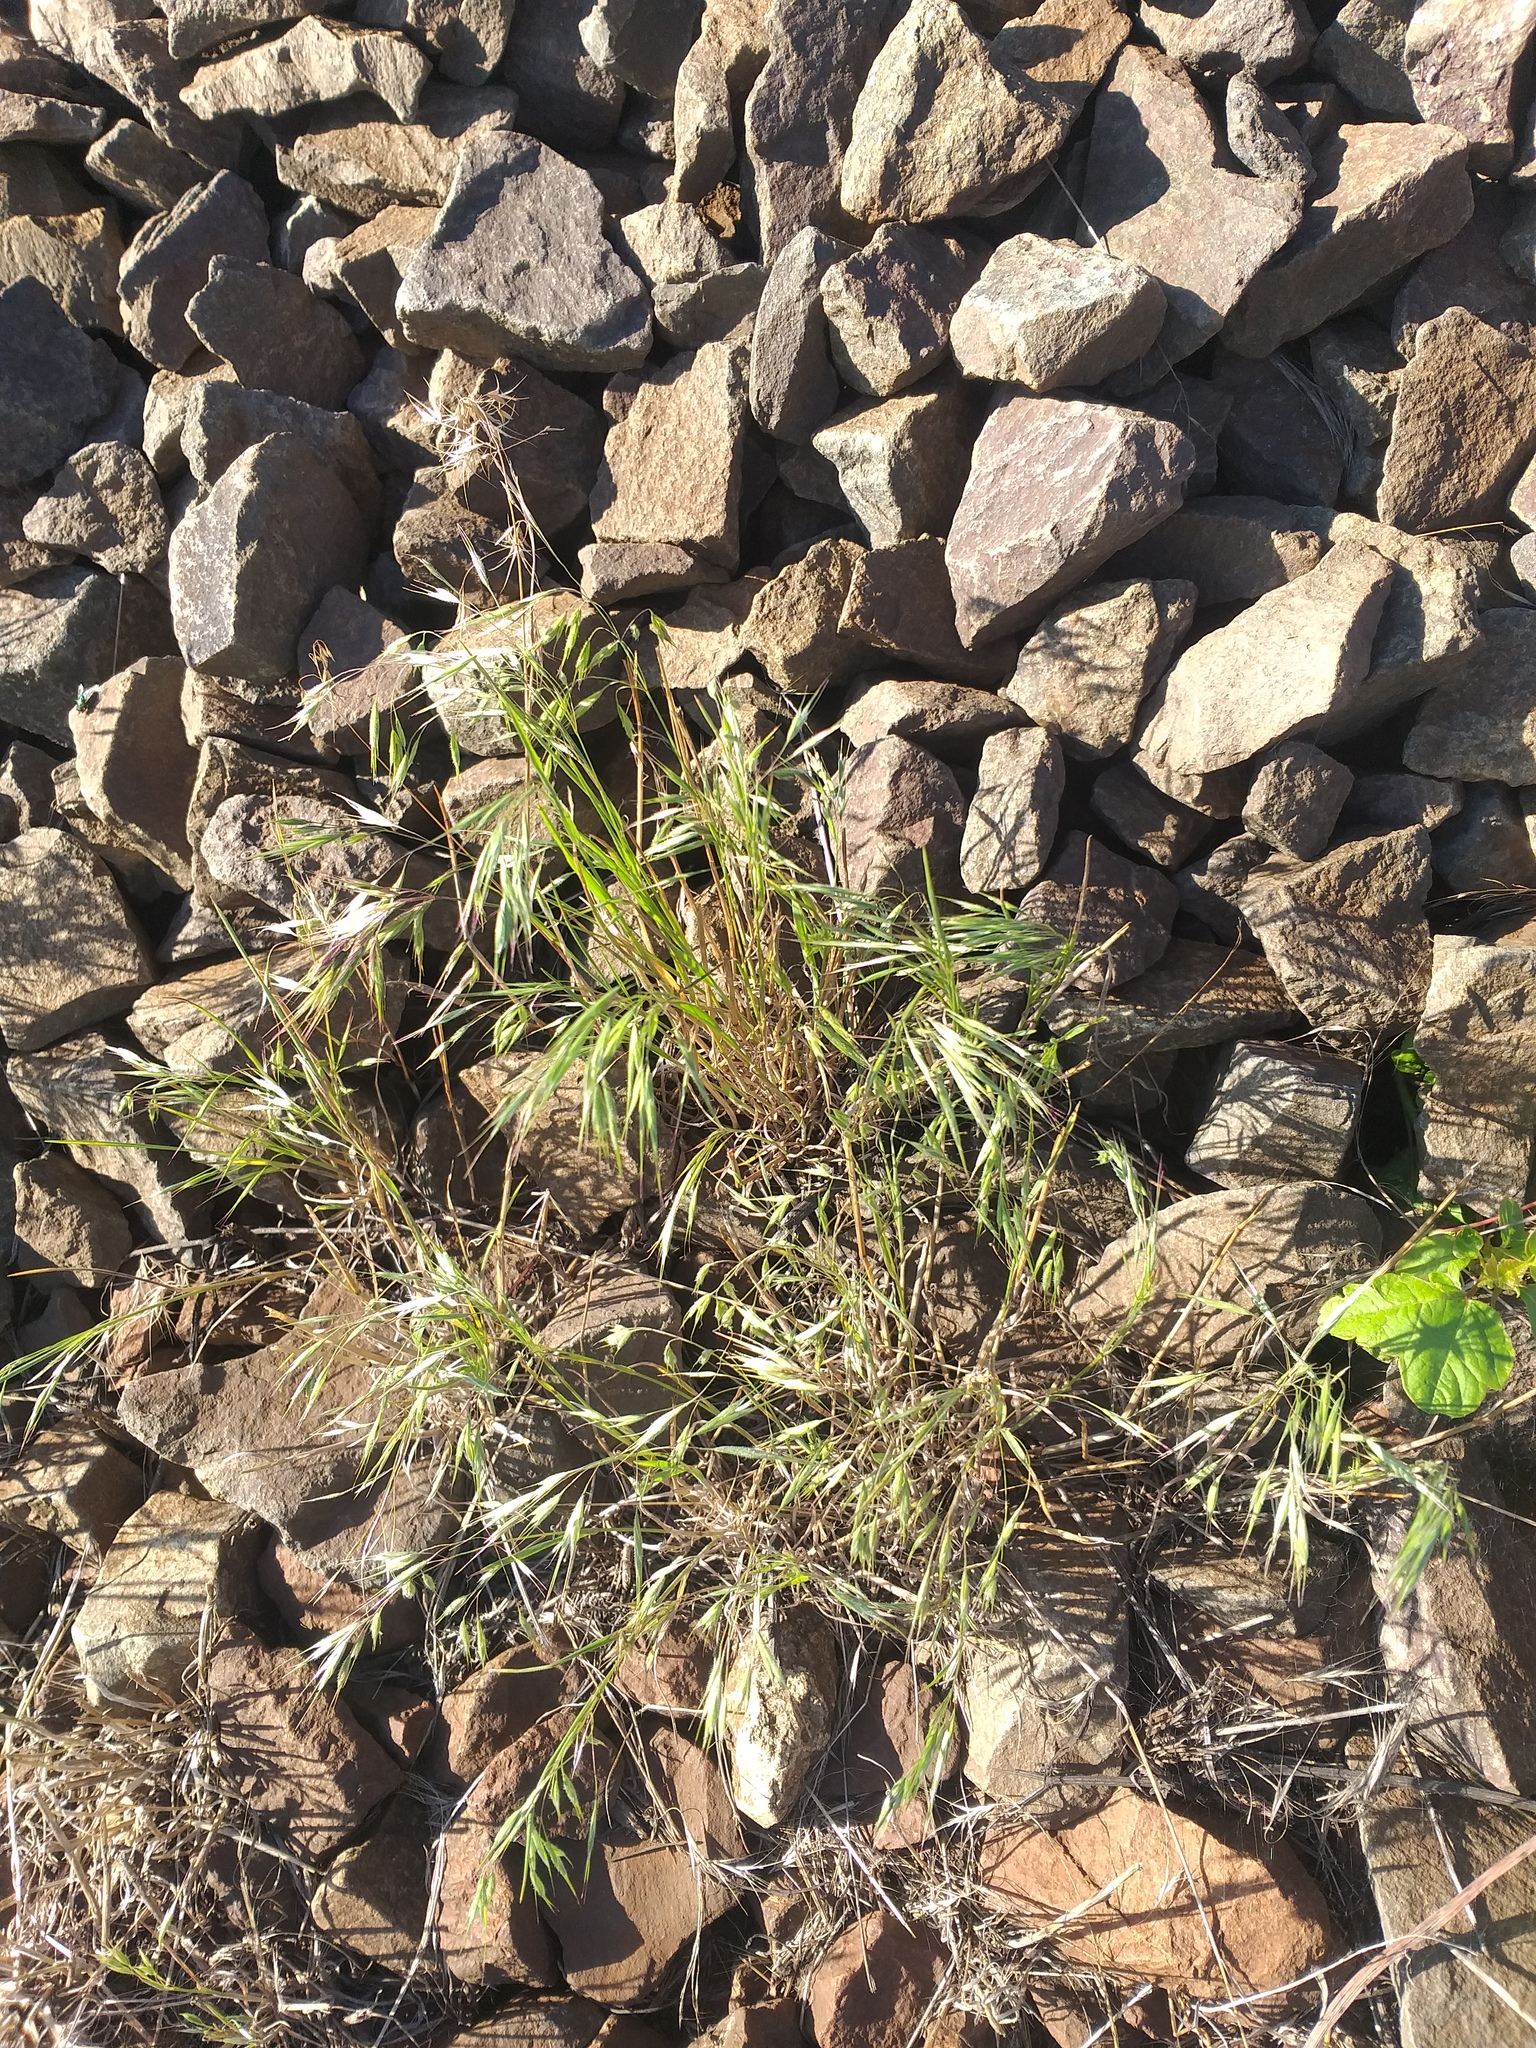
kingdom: Plantae
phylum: Tracheophyta
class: Liliopsida
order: Poales
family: Poaceae
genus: Bromus
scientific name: Bromus tectorum
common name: Cheatgrass
